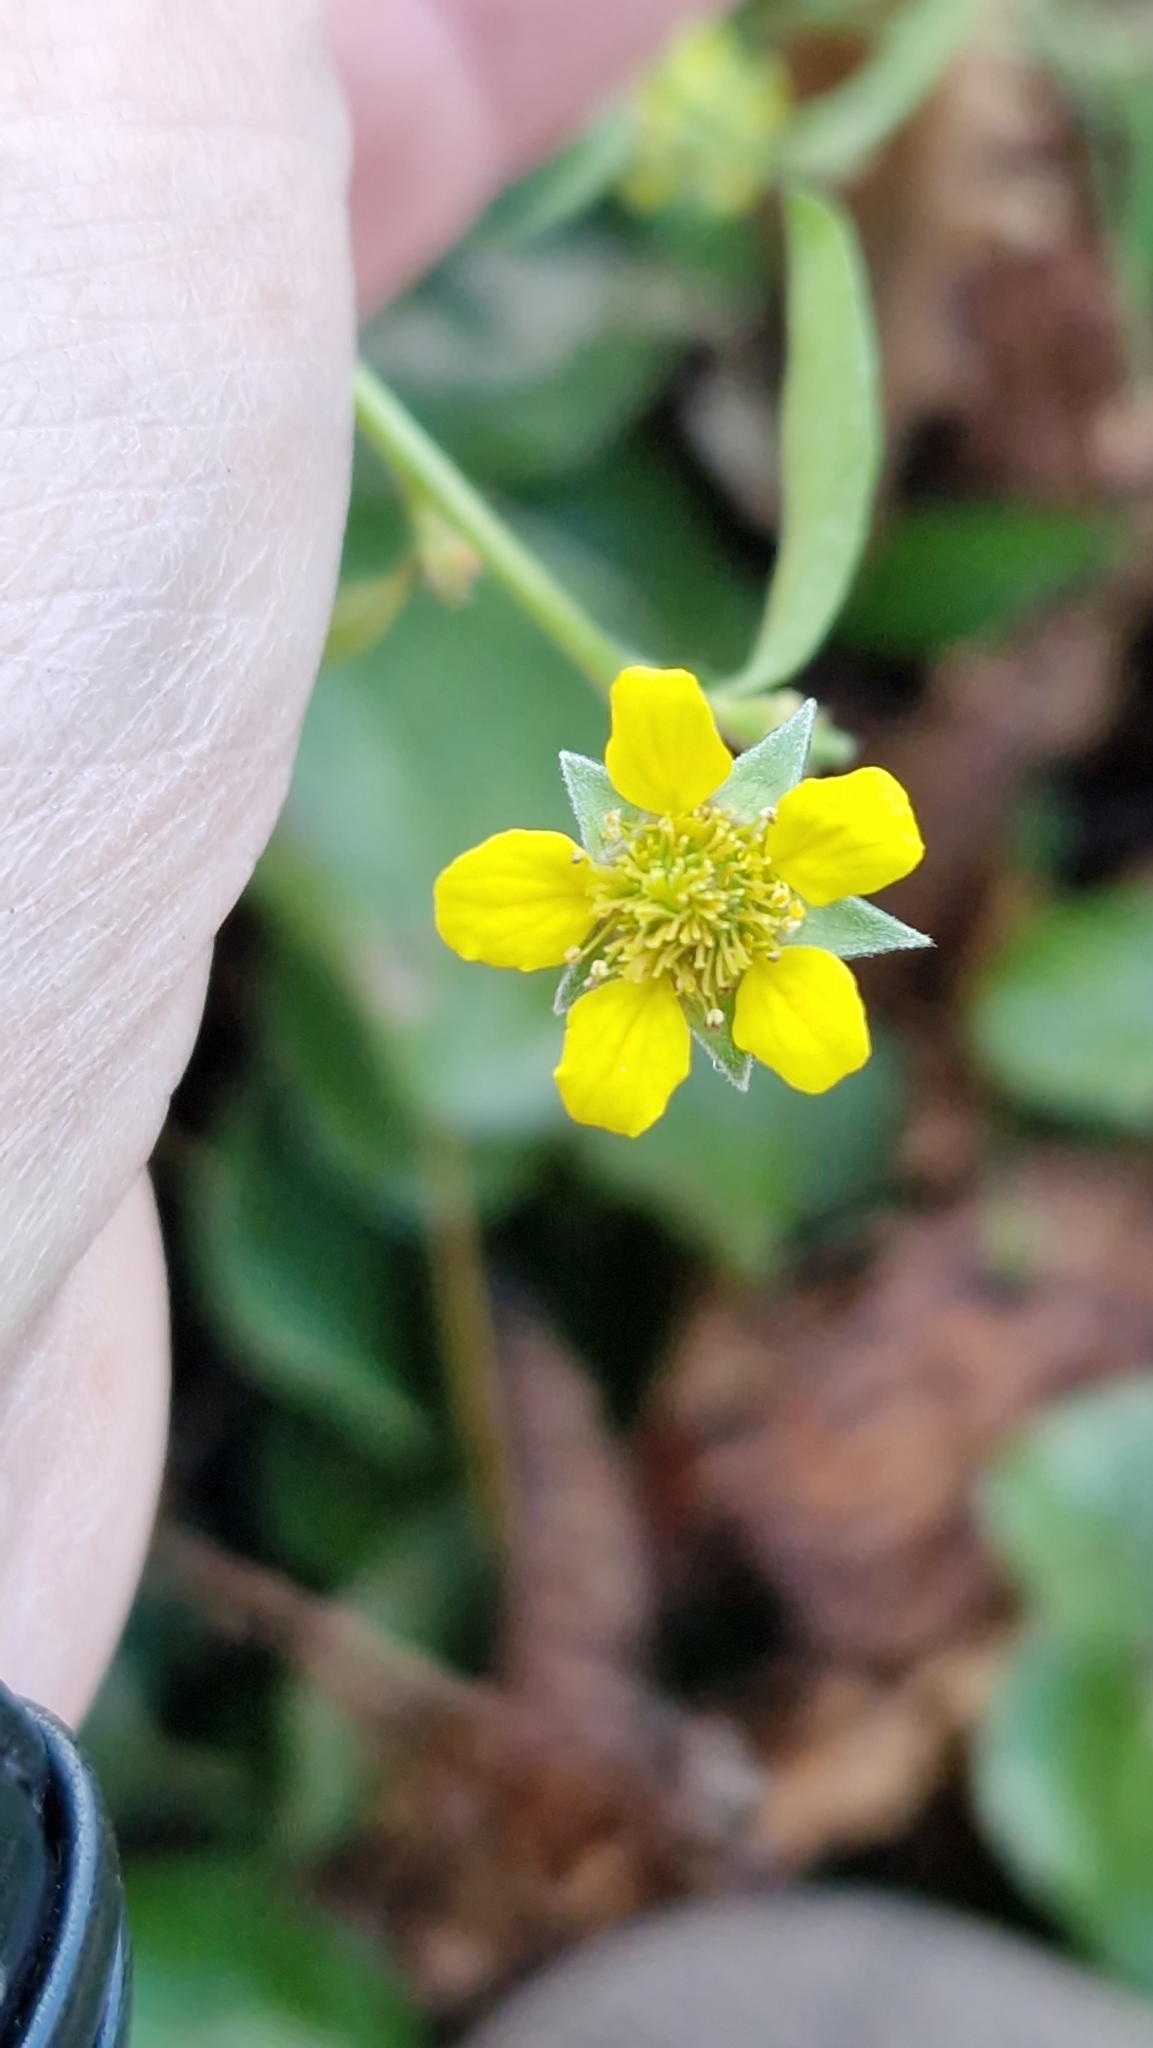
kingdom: Plantae
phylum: Tracheophyta
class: Magnoliopsida
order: Rosales
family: Rosaceae
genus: Geum
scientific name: Geum urbanum
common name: Wood avens
